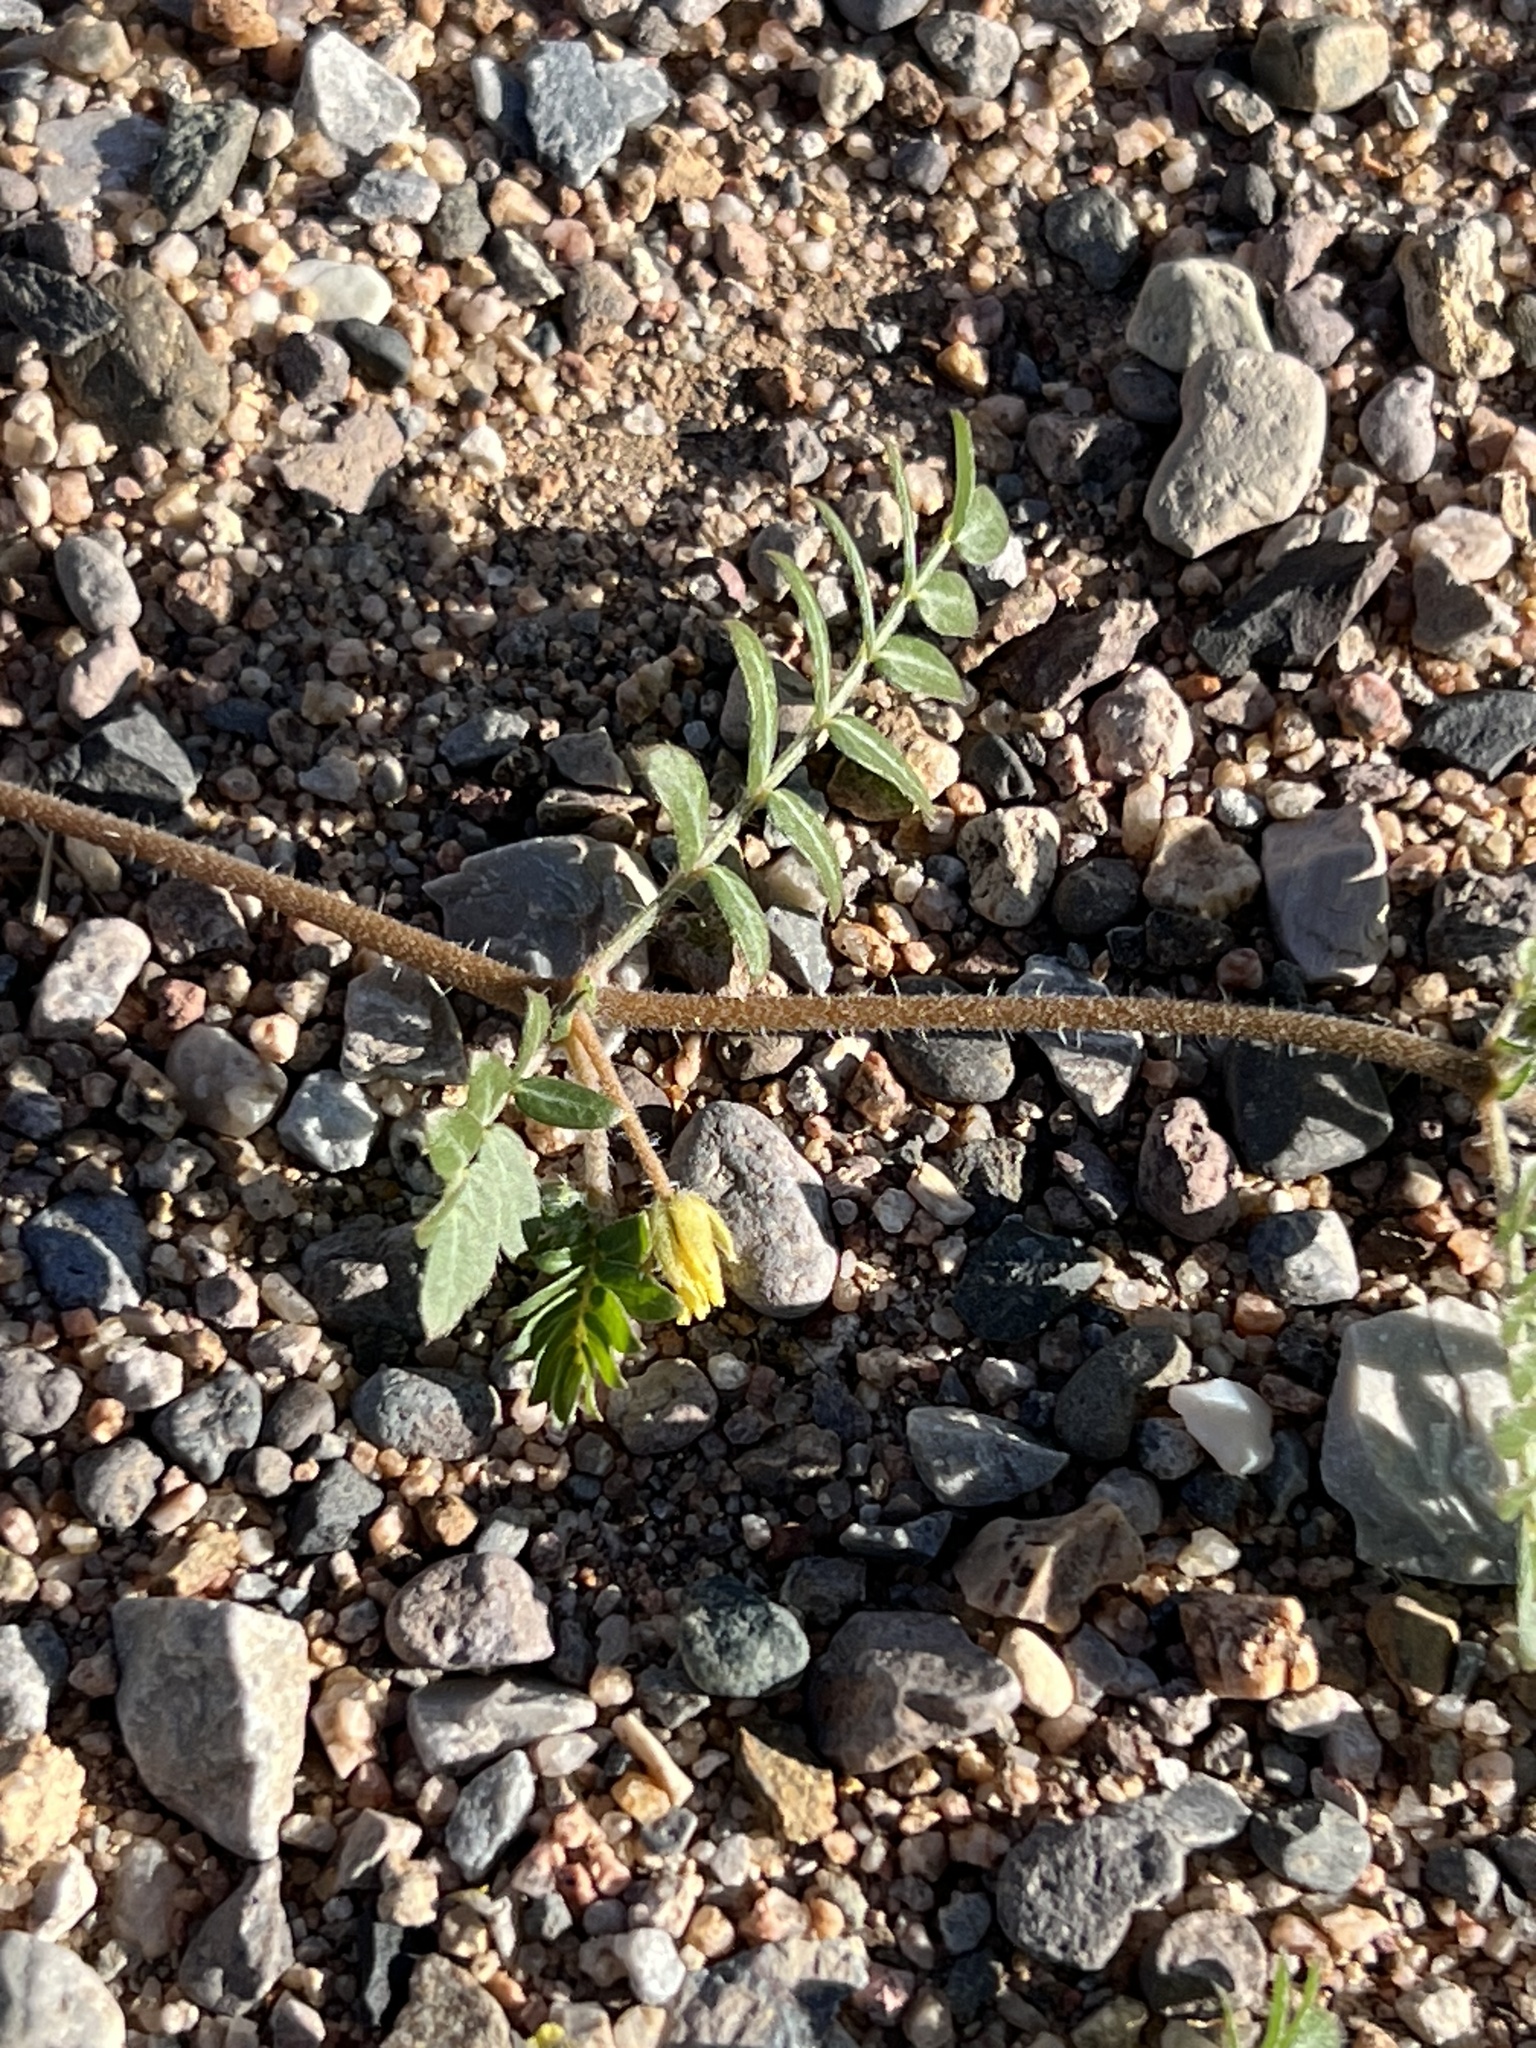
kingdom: Plantae
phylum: Tracheophyta
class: Magnoliopsida
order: Zygophyllales
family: Zygophyllaceae
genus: Tribulus
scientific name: Tribulus terrestris
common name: Puncturevine
